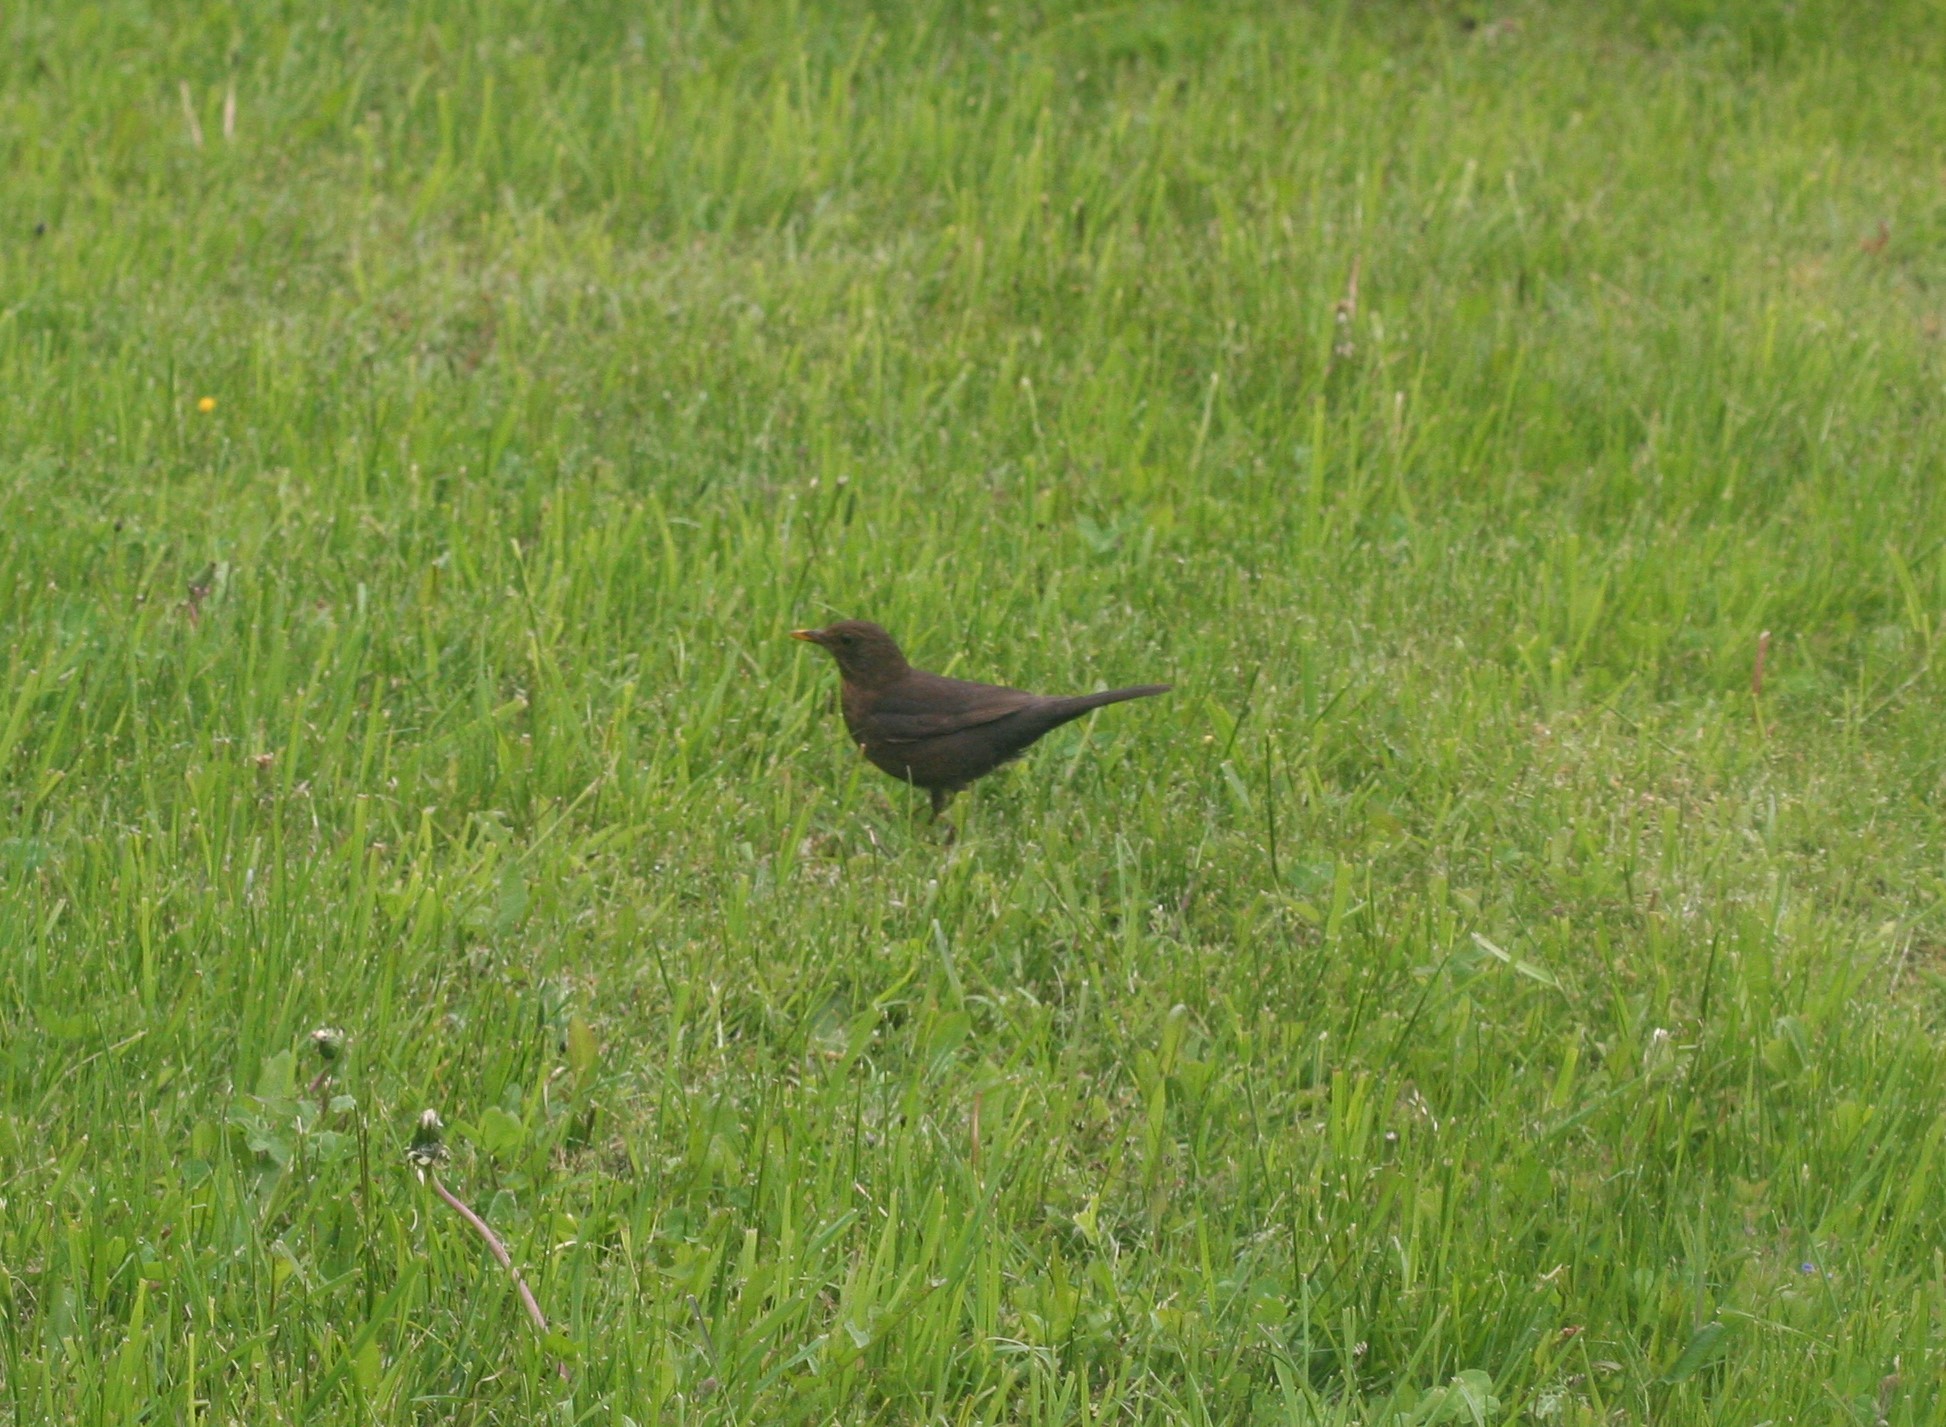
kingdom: Animalia
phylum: Chordata
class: Aves
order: Passeriformes
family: Turdidae
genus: Turdus
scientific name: Turdus merula
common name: Common blackbird
